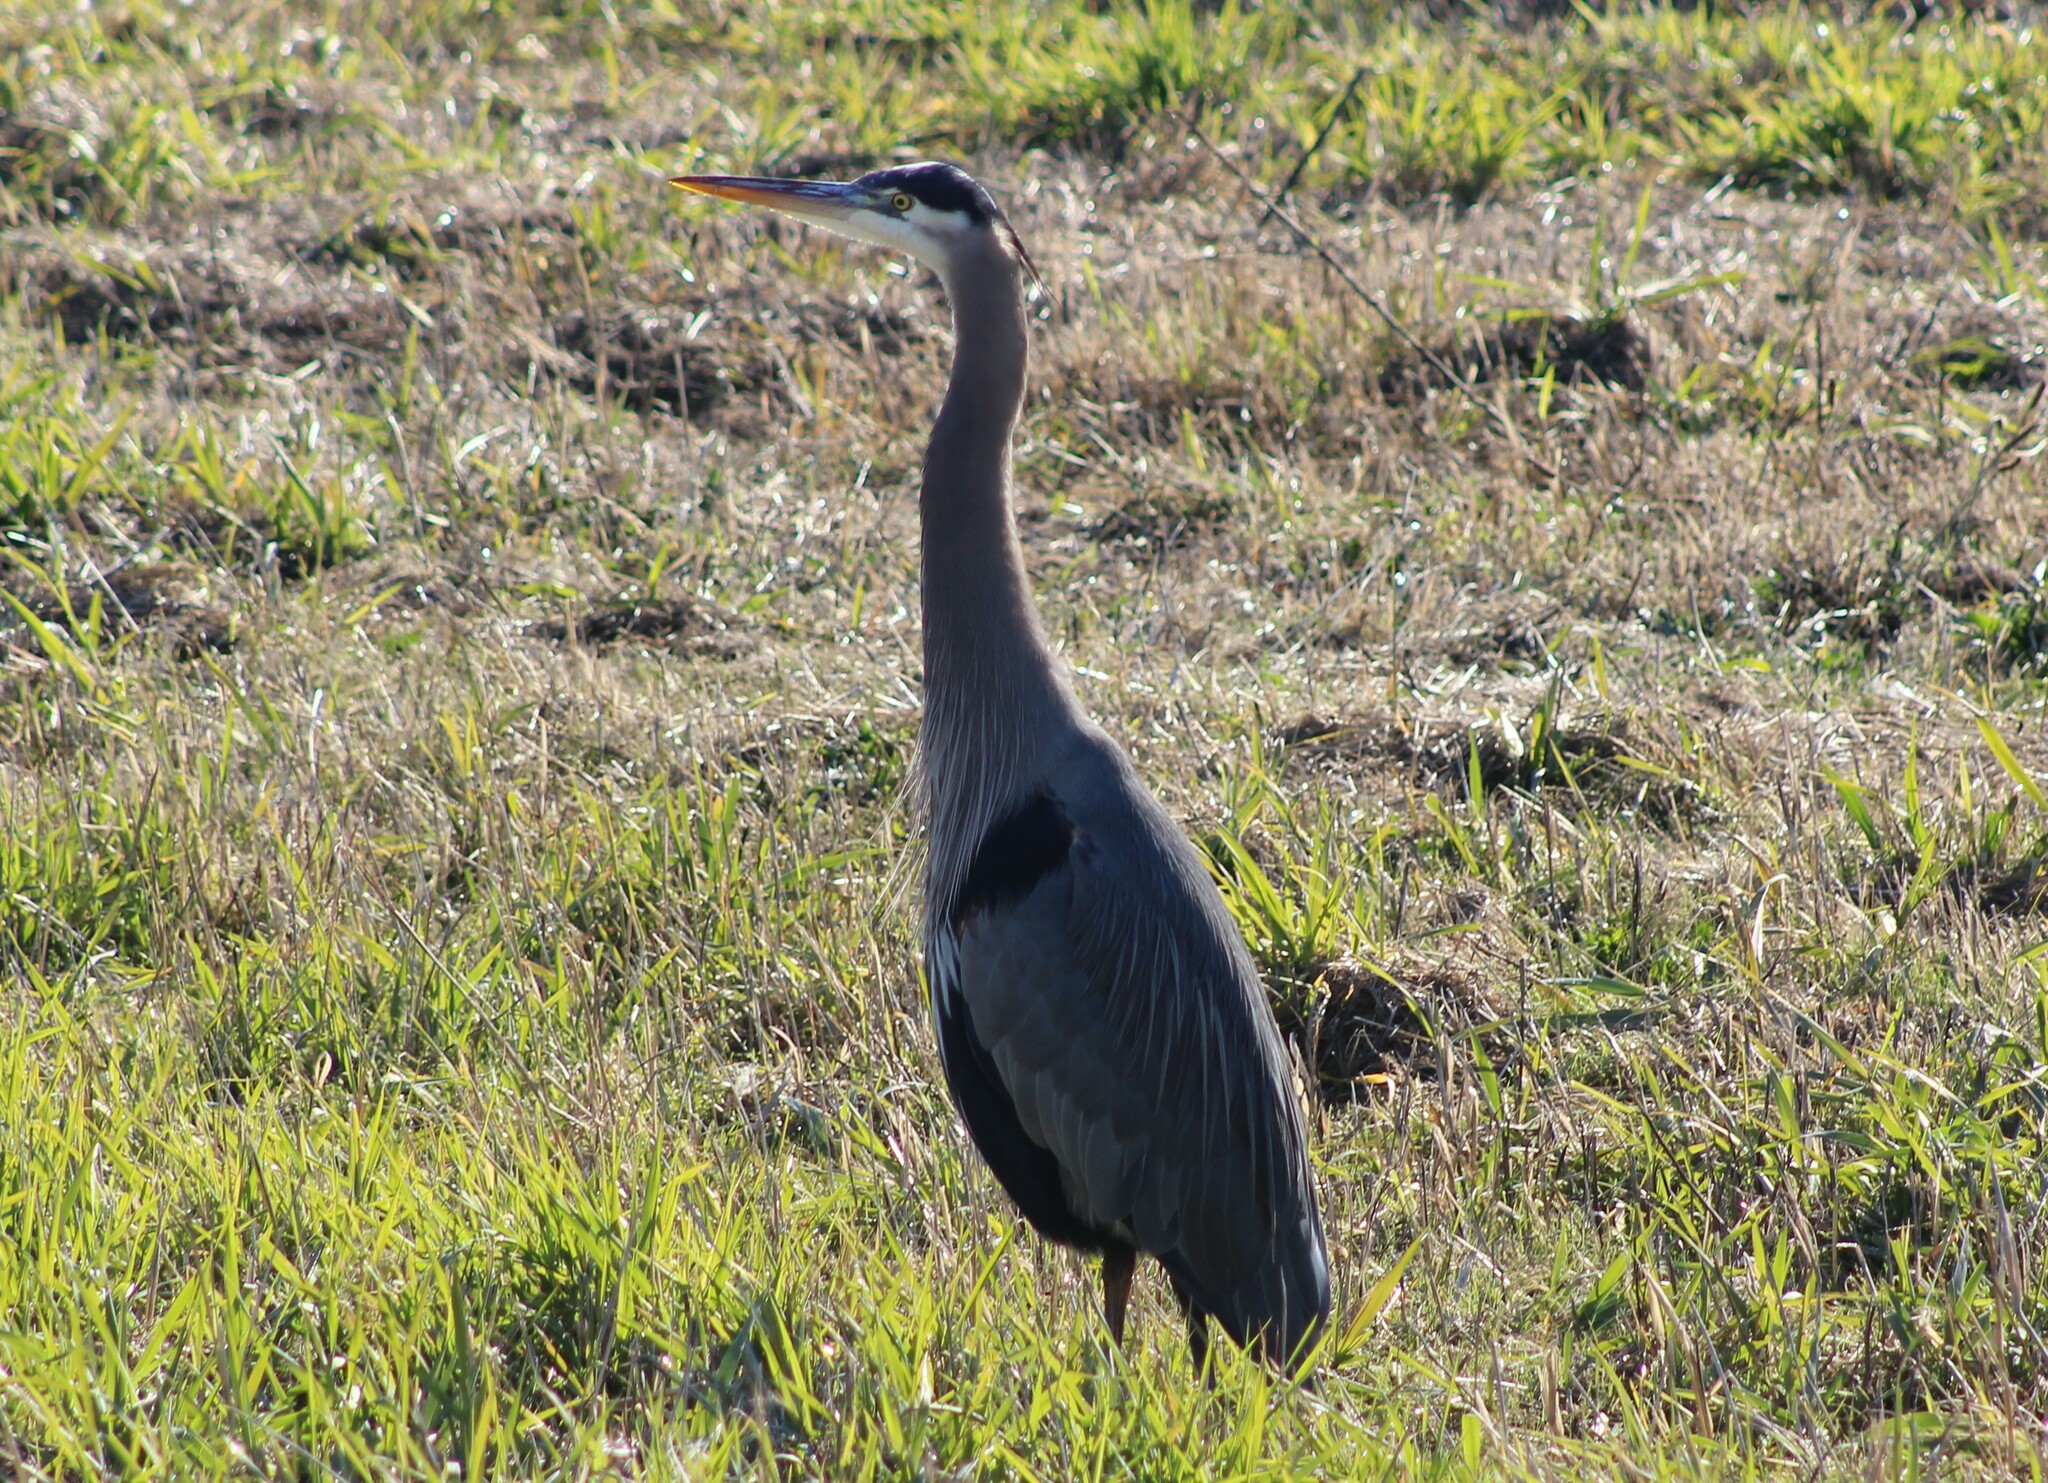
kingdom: Animalia
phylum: Chordata
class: Aves
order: Pelecaniformes
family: Ardeidae
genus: Ardea
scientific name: Ardea herodias
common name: Great blue heron
